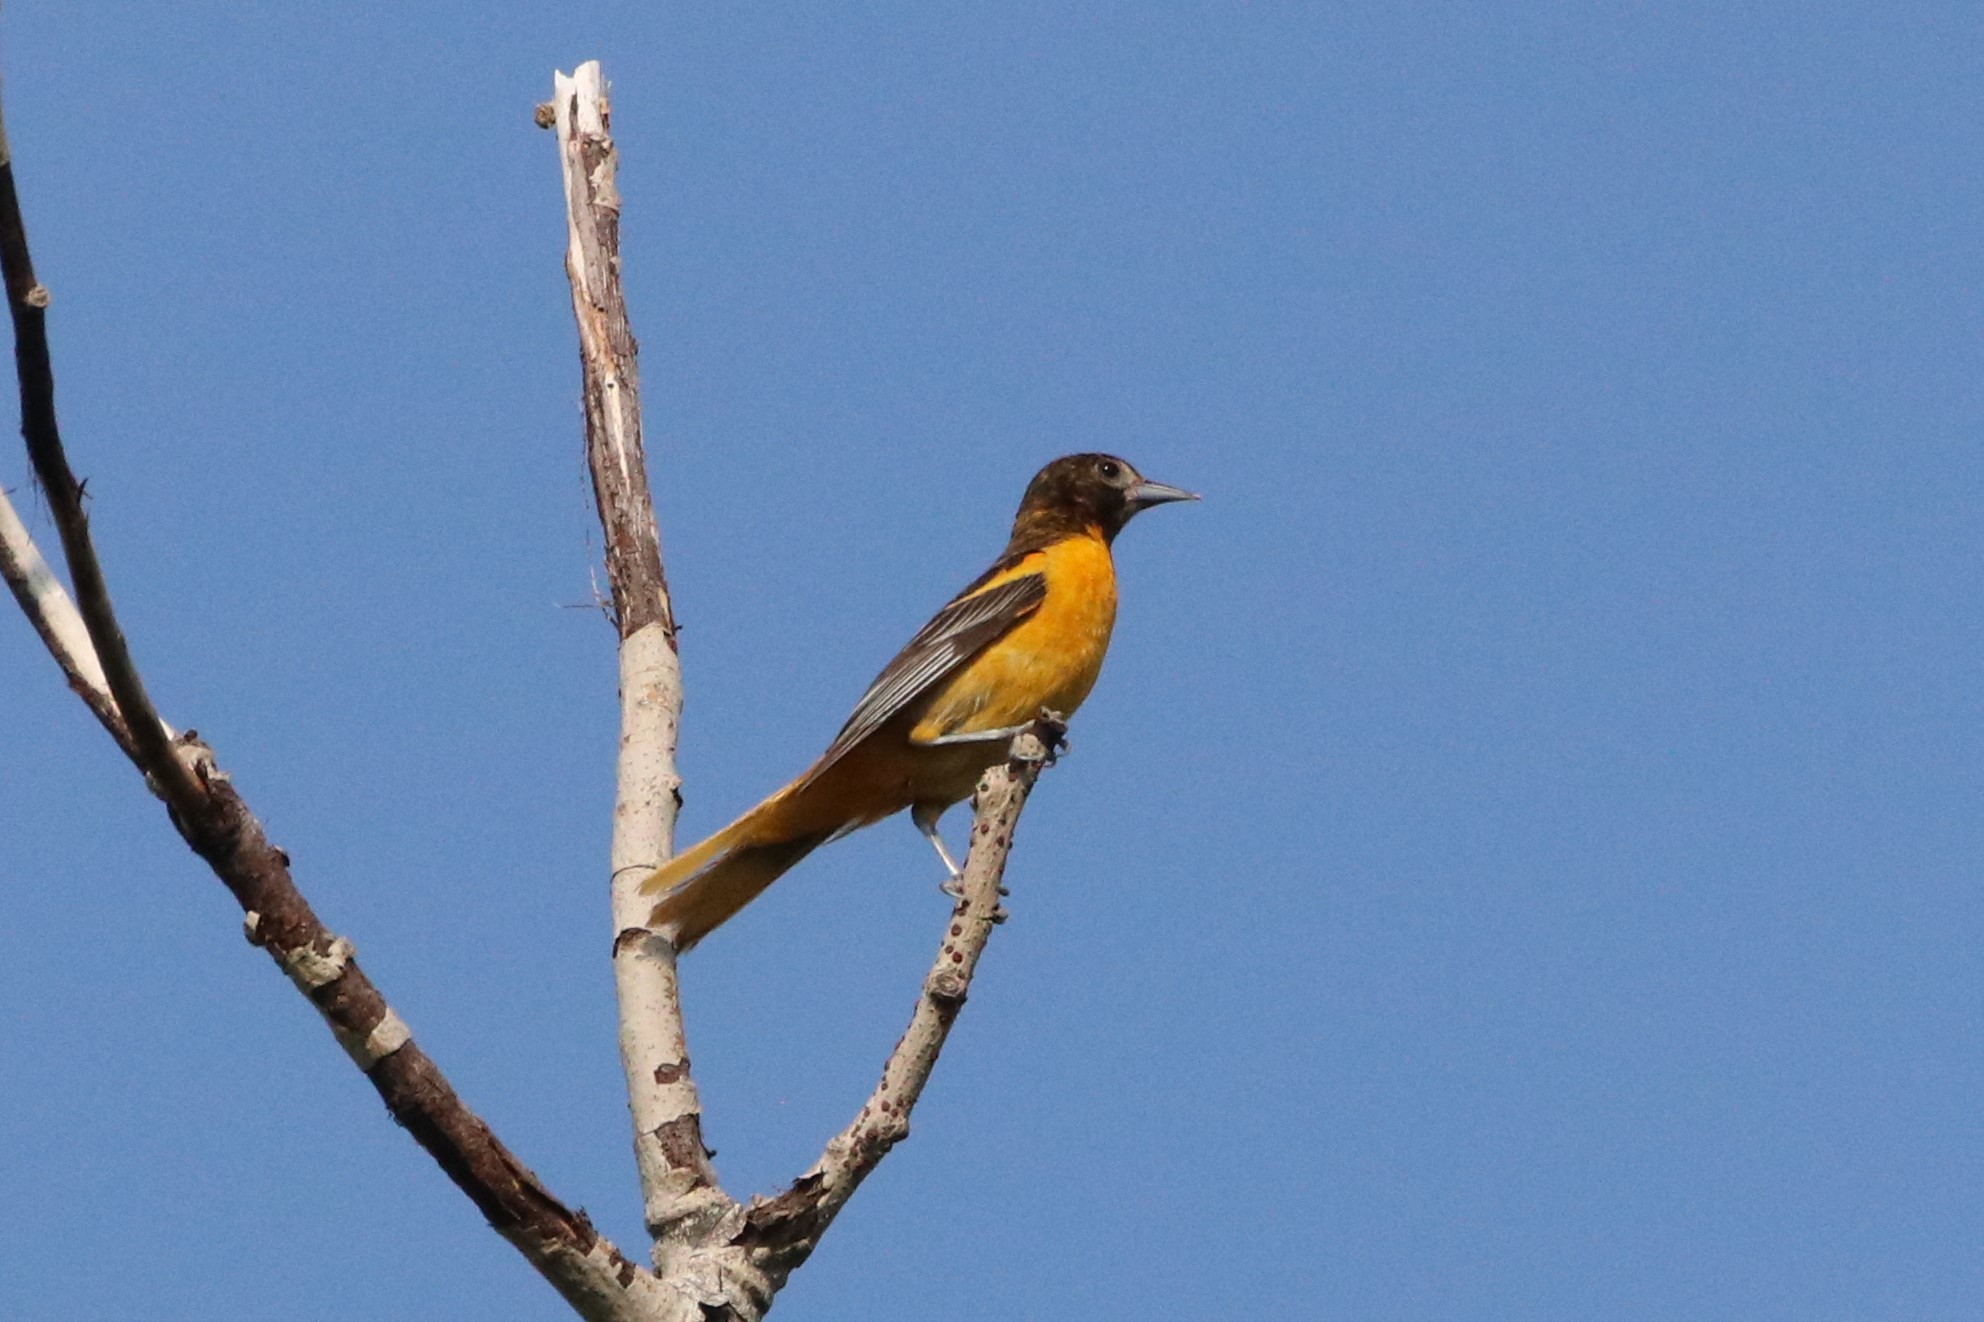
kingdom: Animalia
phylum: Chordata
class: Aves
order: Passeriformes
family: Icteridae
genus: Icterus
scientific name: Icterus galbula
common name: Baltimore oriole
